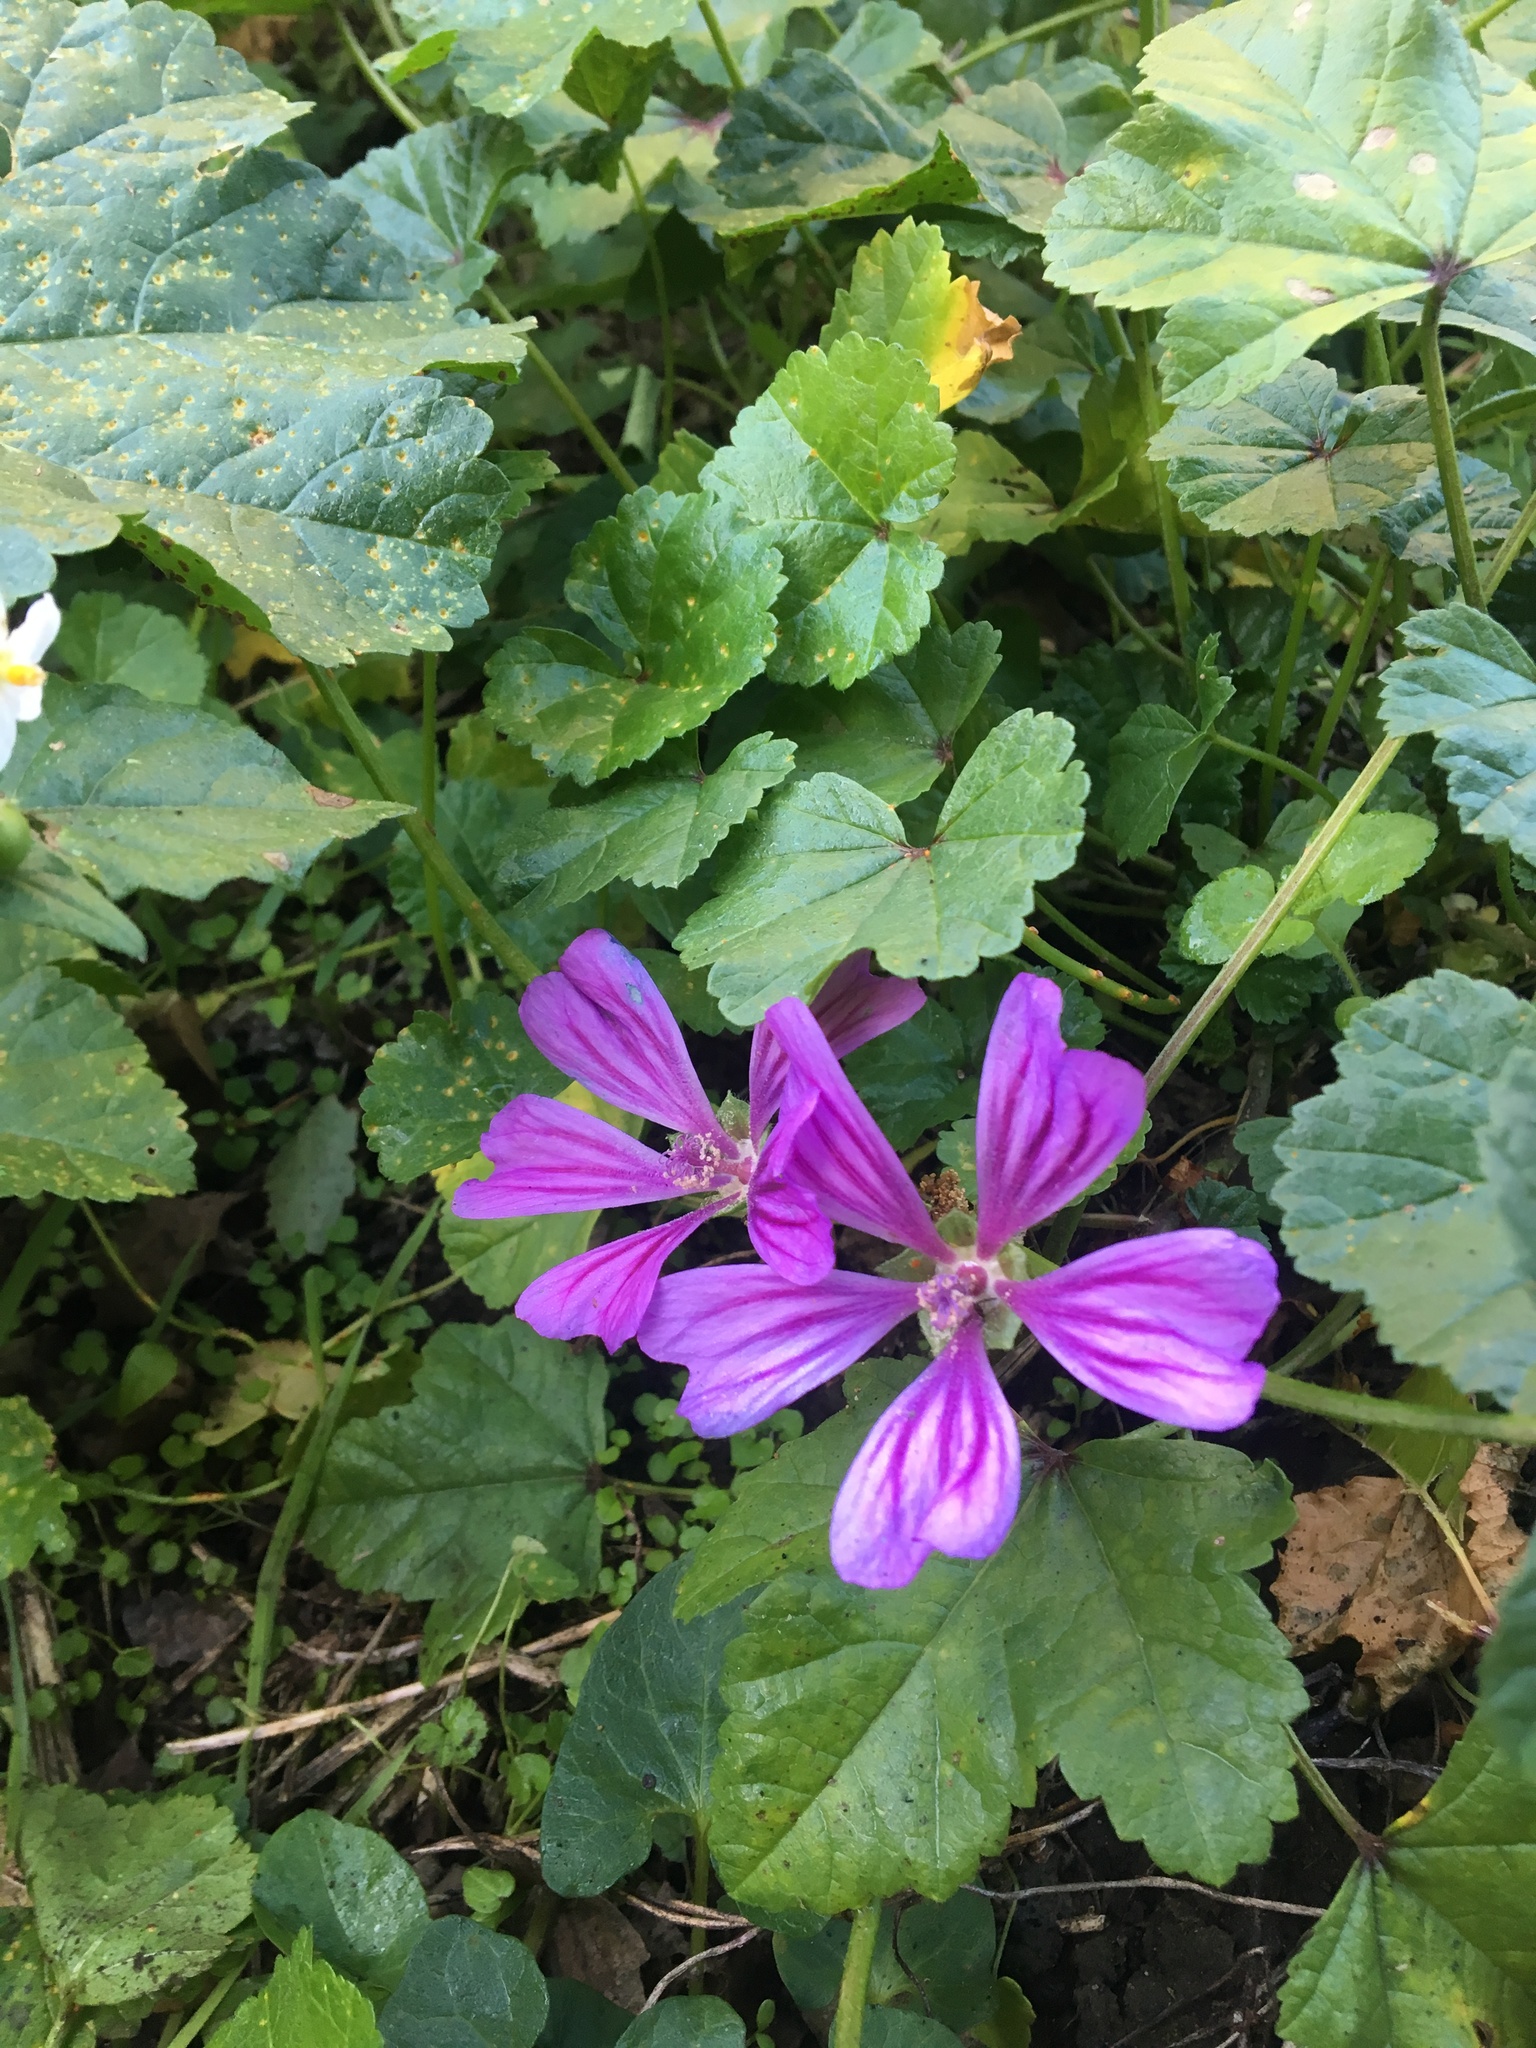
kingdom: Plantae
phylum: Tracheophyta
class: Magnoliopsida
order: Malvales
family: Malvaceae
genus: Malva
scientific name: Malva sylvestris
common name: Common mallow
